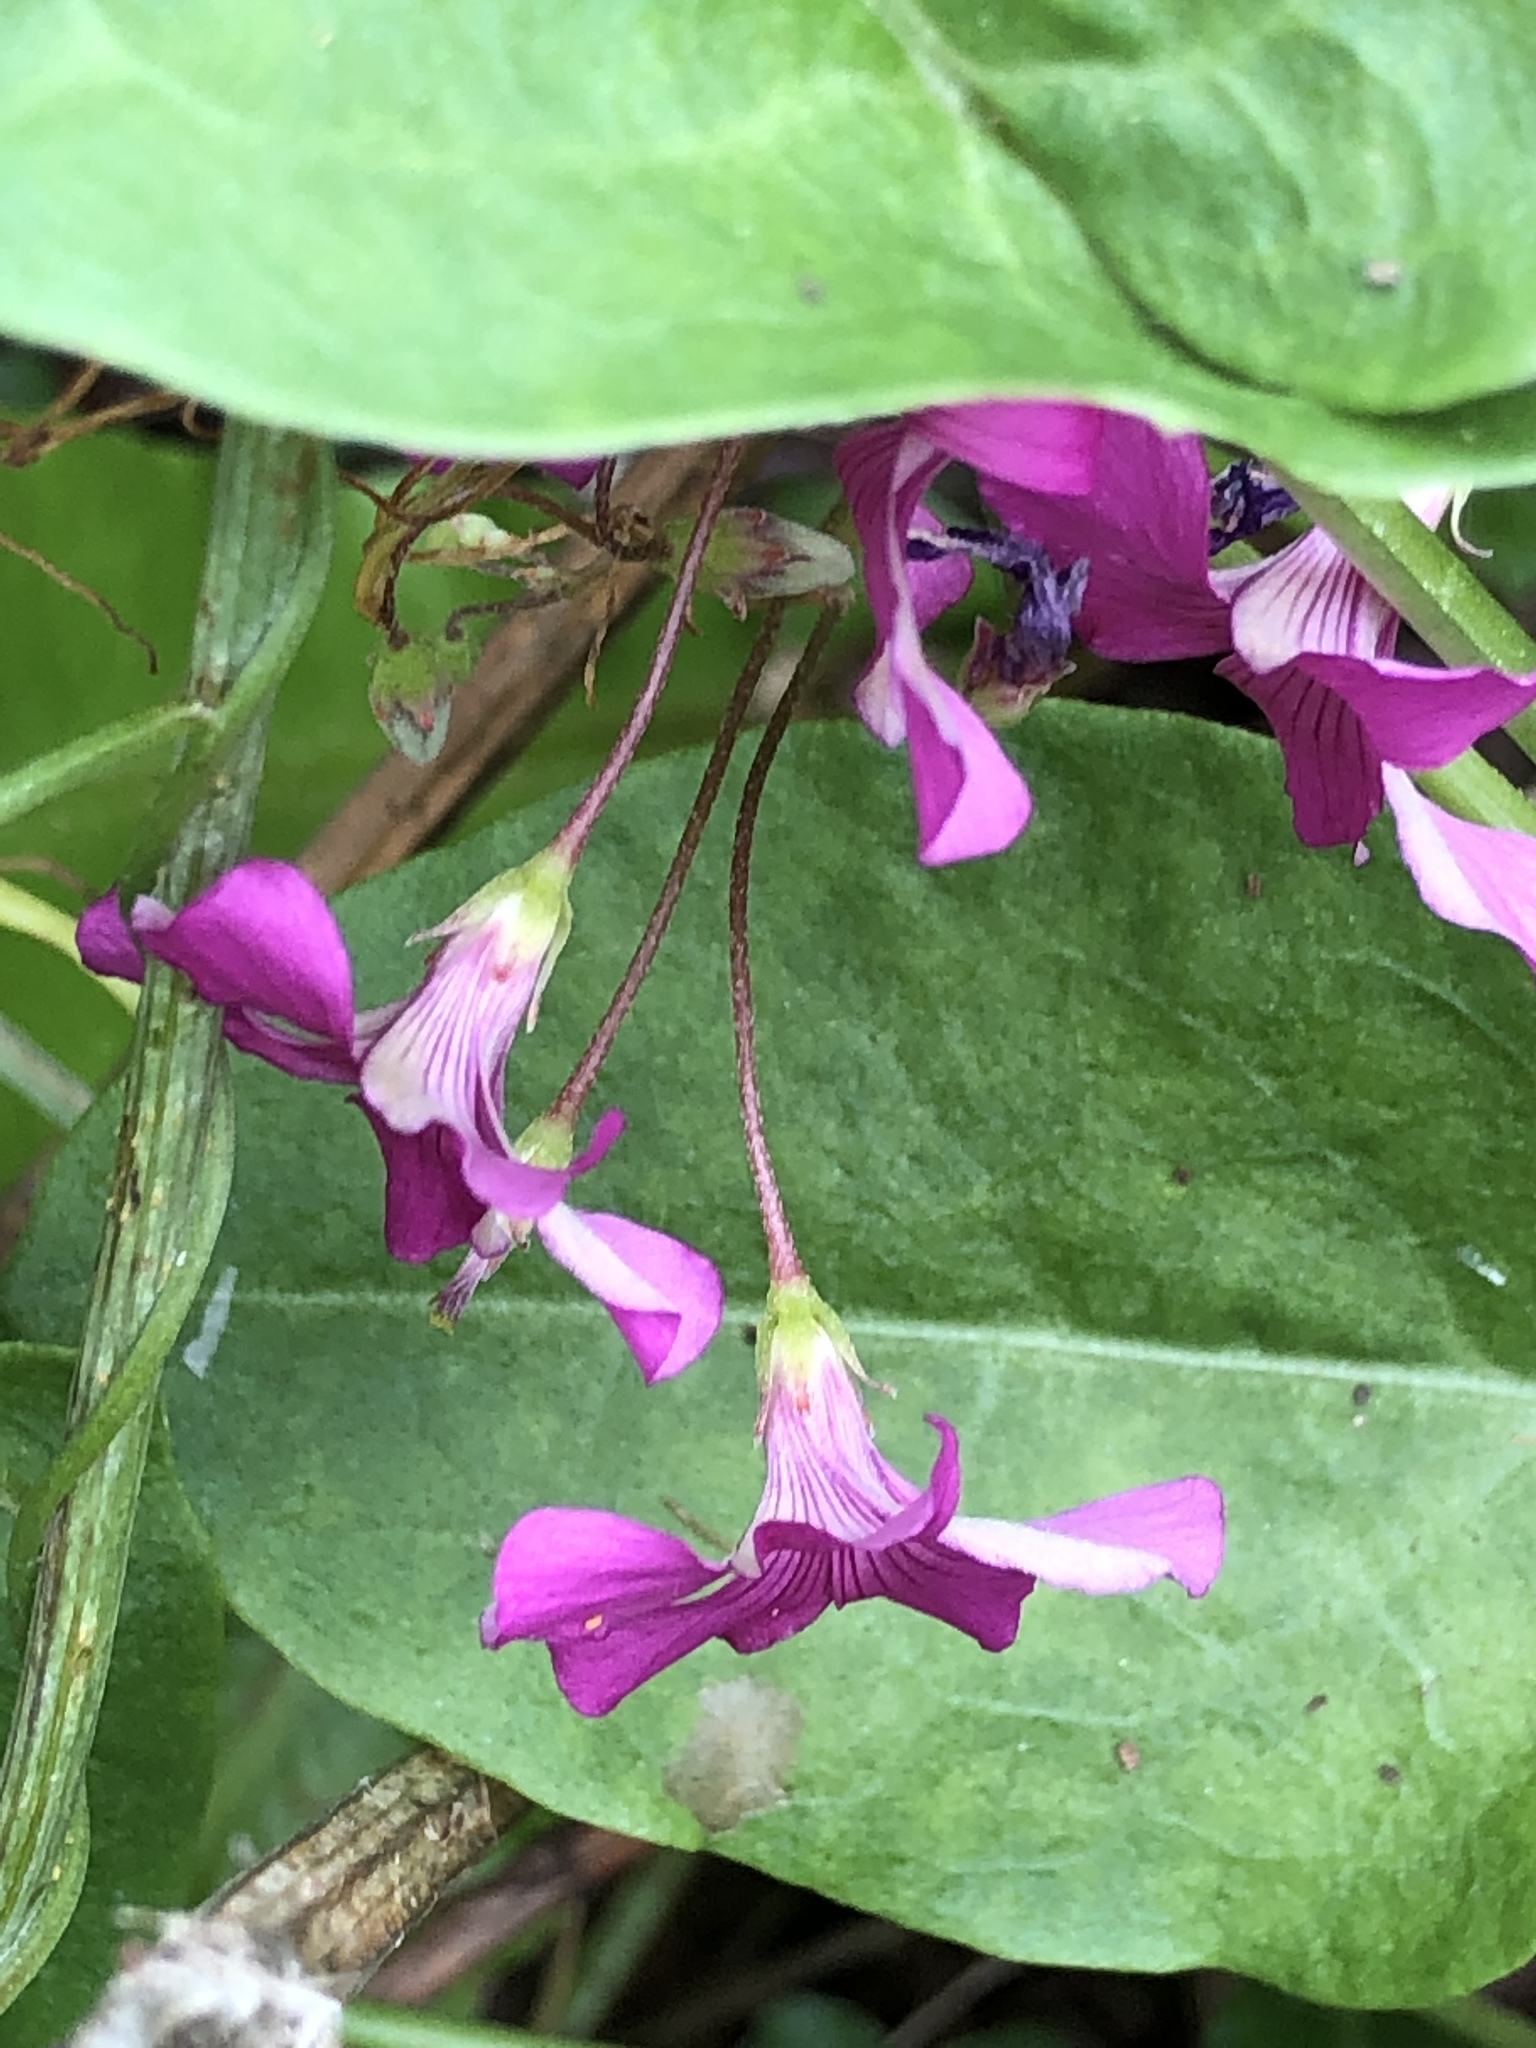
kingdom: Plantae
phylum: Tracheophyta
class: Magnoliopsida
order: Oxalidales
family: Oxalidaceae
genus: Oxalis
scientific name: Oxalis articulata
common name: Pink-sorrel
